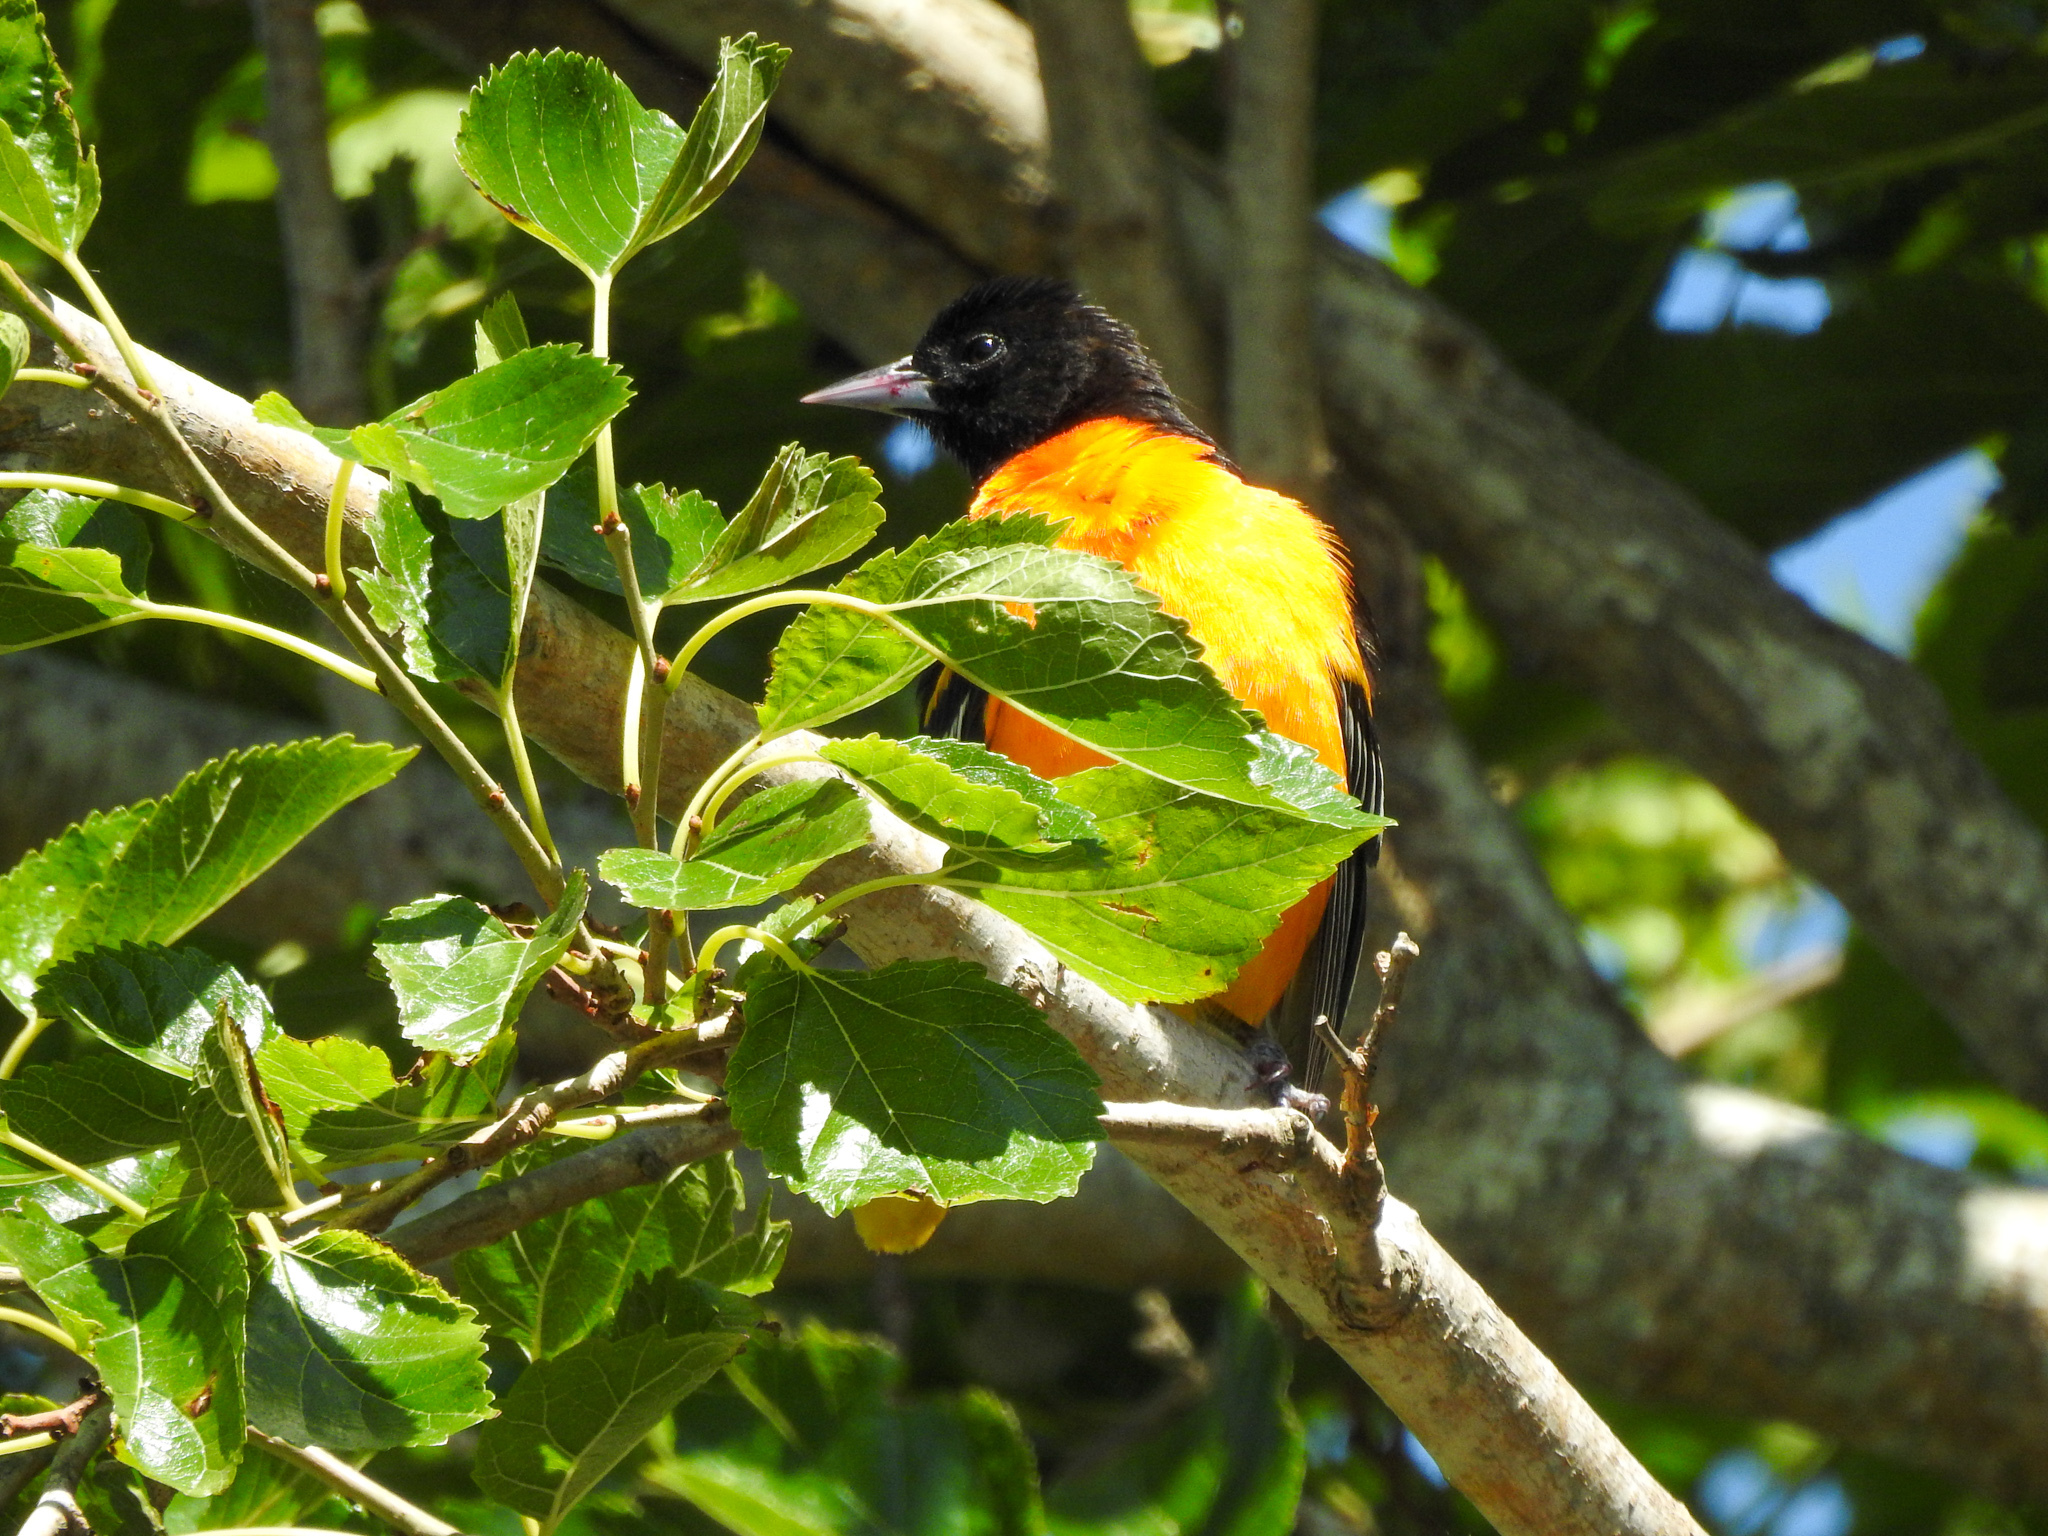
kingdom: Animalia
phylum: Chordata
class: Aves
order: Passeriformes
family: Icteridae
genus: Icterus
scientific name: Icterus galbula
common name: Baltimore oriole
